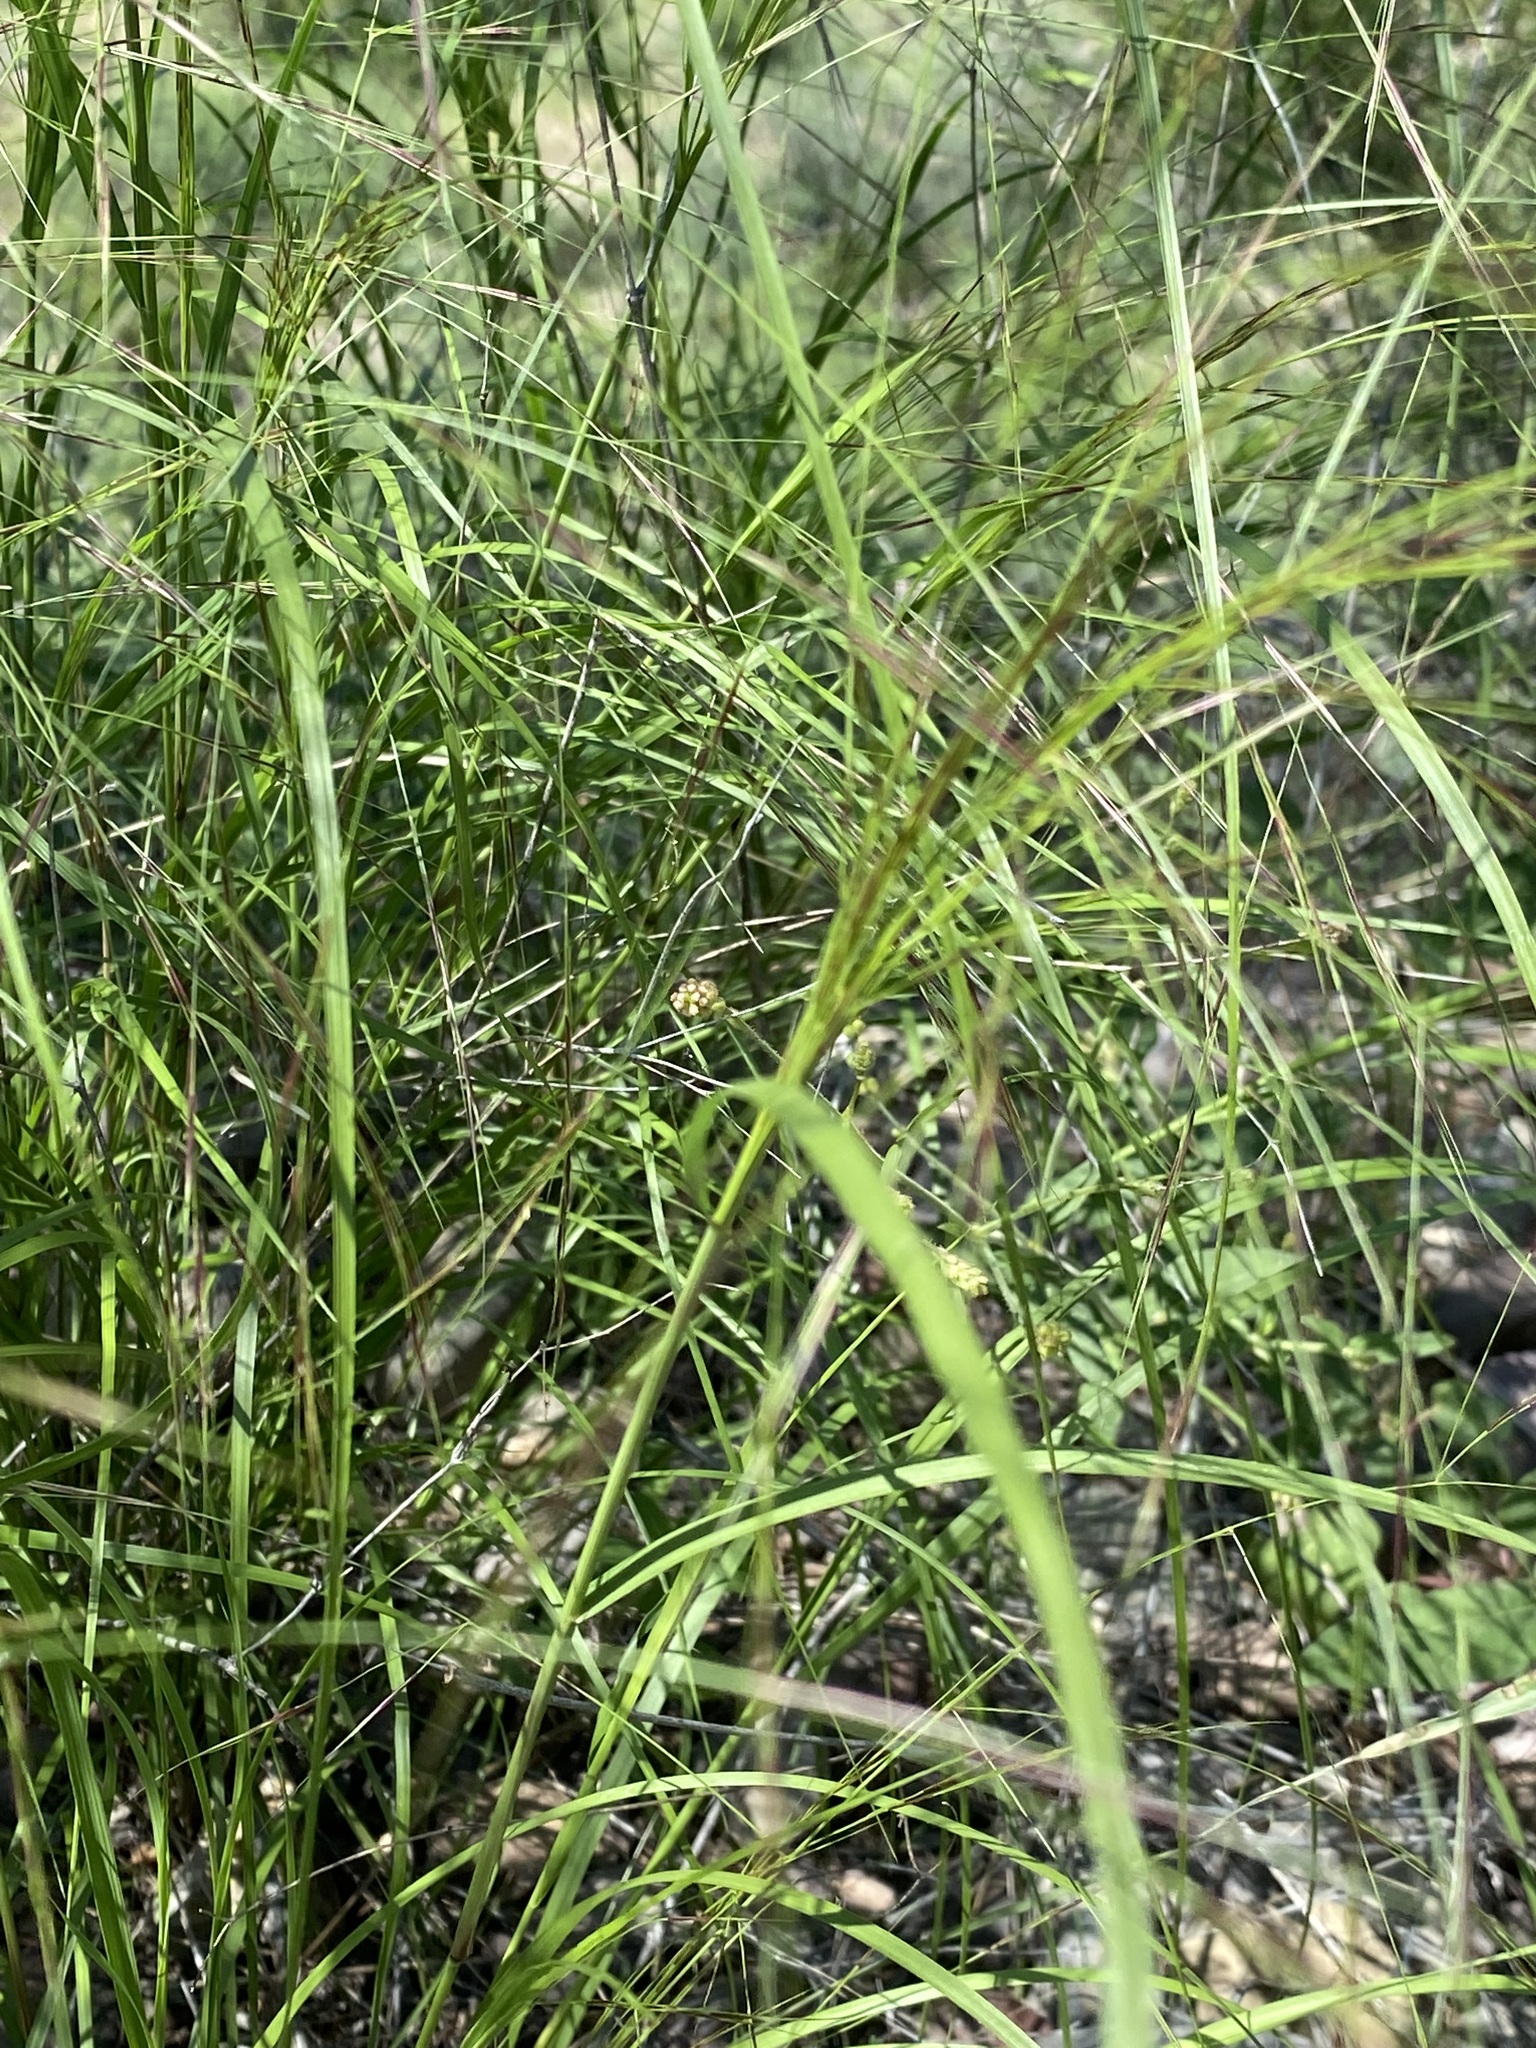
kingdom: Plantae
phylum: Tracheophyta
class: Liliopsida
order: Poales
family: Poaceae
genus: Aristida
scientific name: Aristida ternipes
